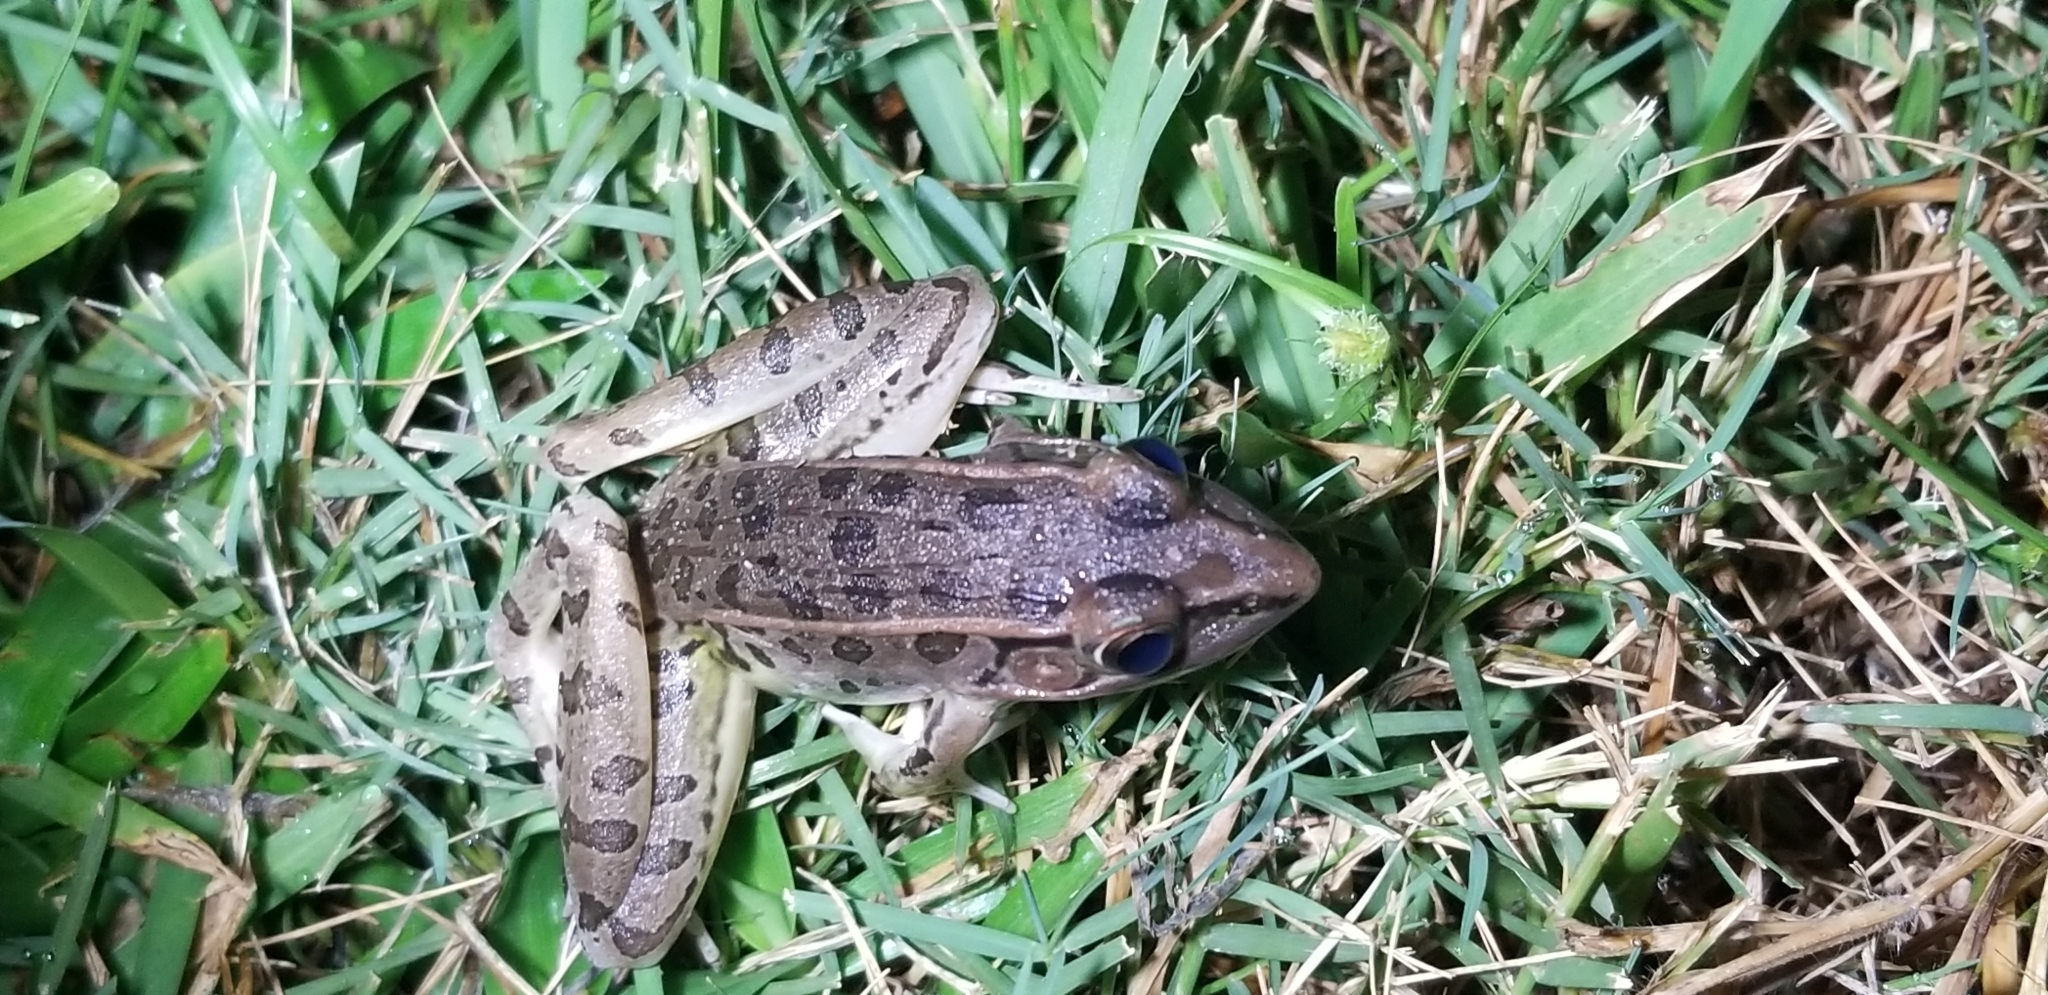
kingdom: Animalia
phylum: Chordata
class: Amphibia
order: Anura
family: Ranidae
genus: Lithobates
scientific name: Lithobates sphenocephalus
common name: Southern leopard frog
